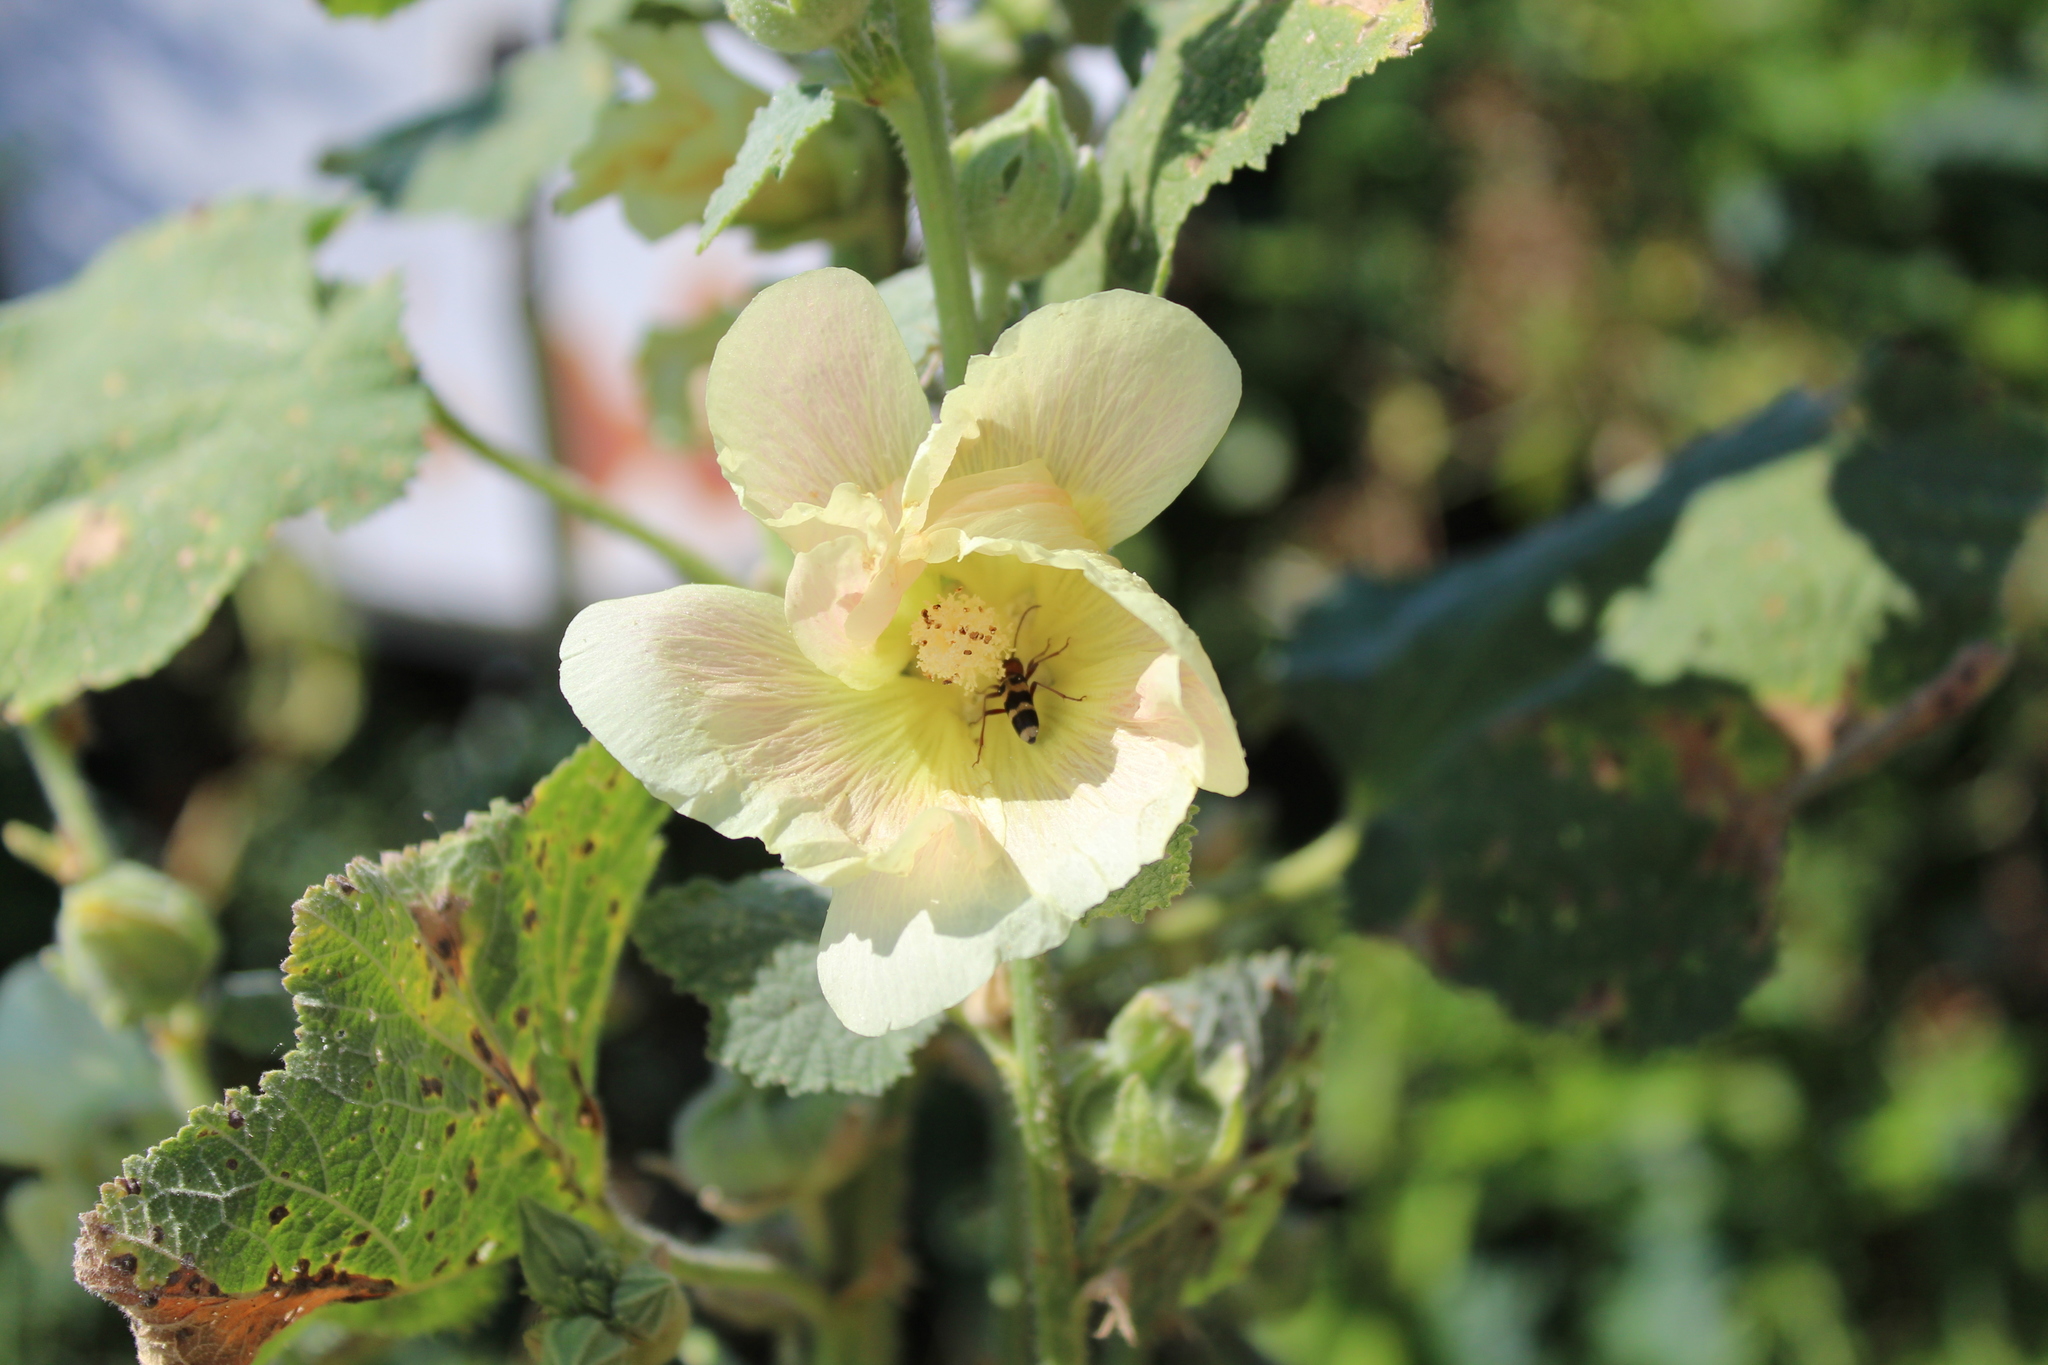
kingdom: Animalia
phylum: Arthropoda
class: Insecta
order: Coleoptera
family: Cerambycidae
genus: Chlorophorus
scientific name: Chlorophorus trifasciatus
